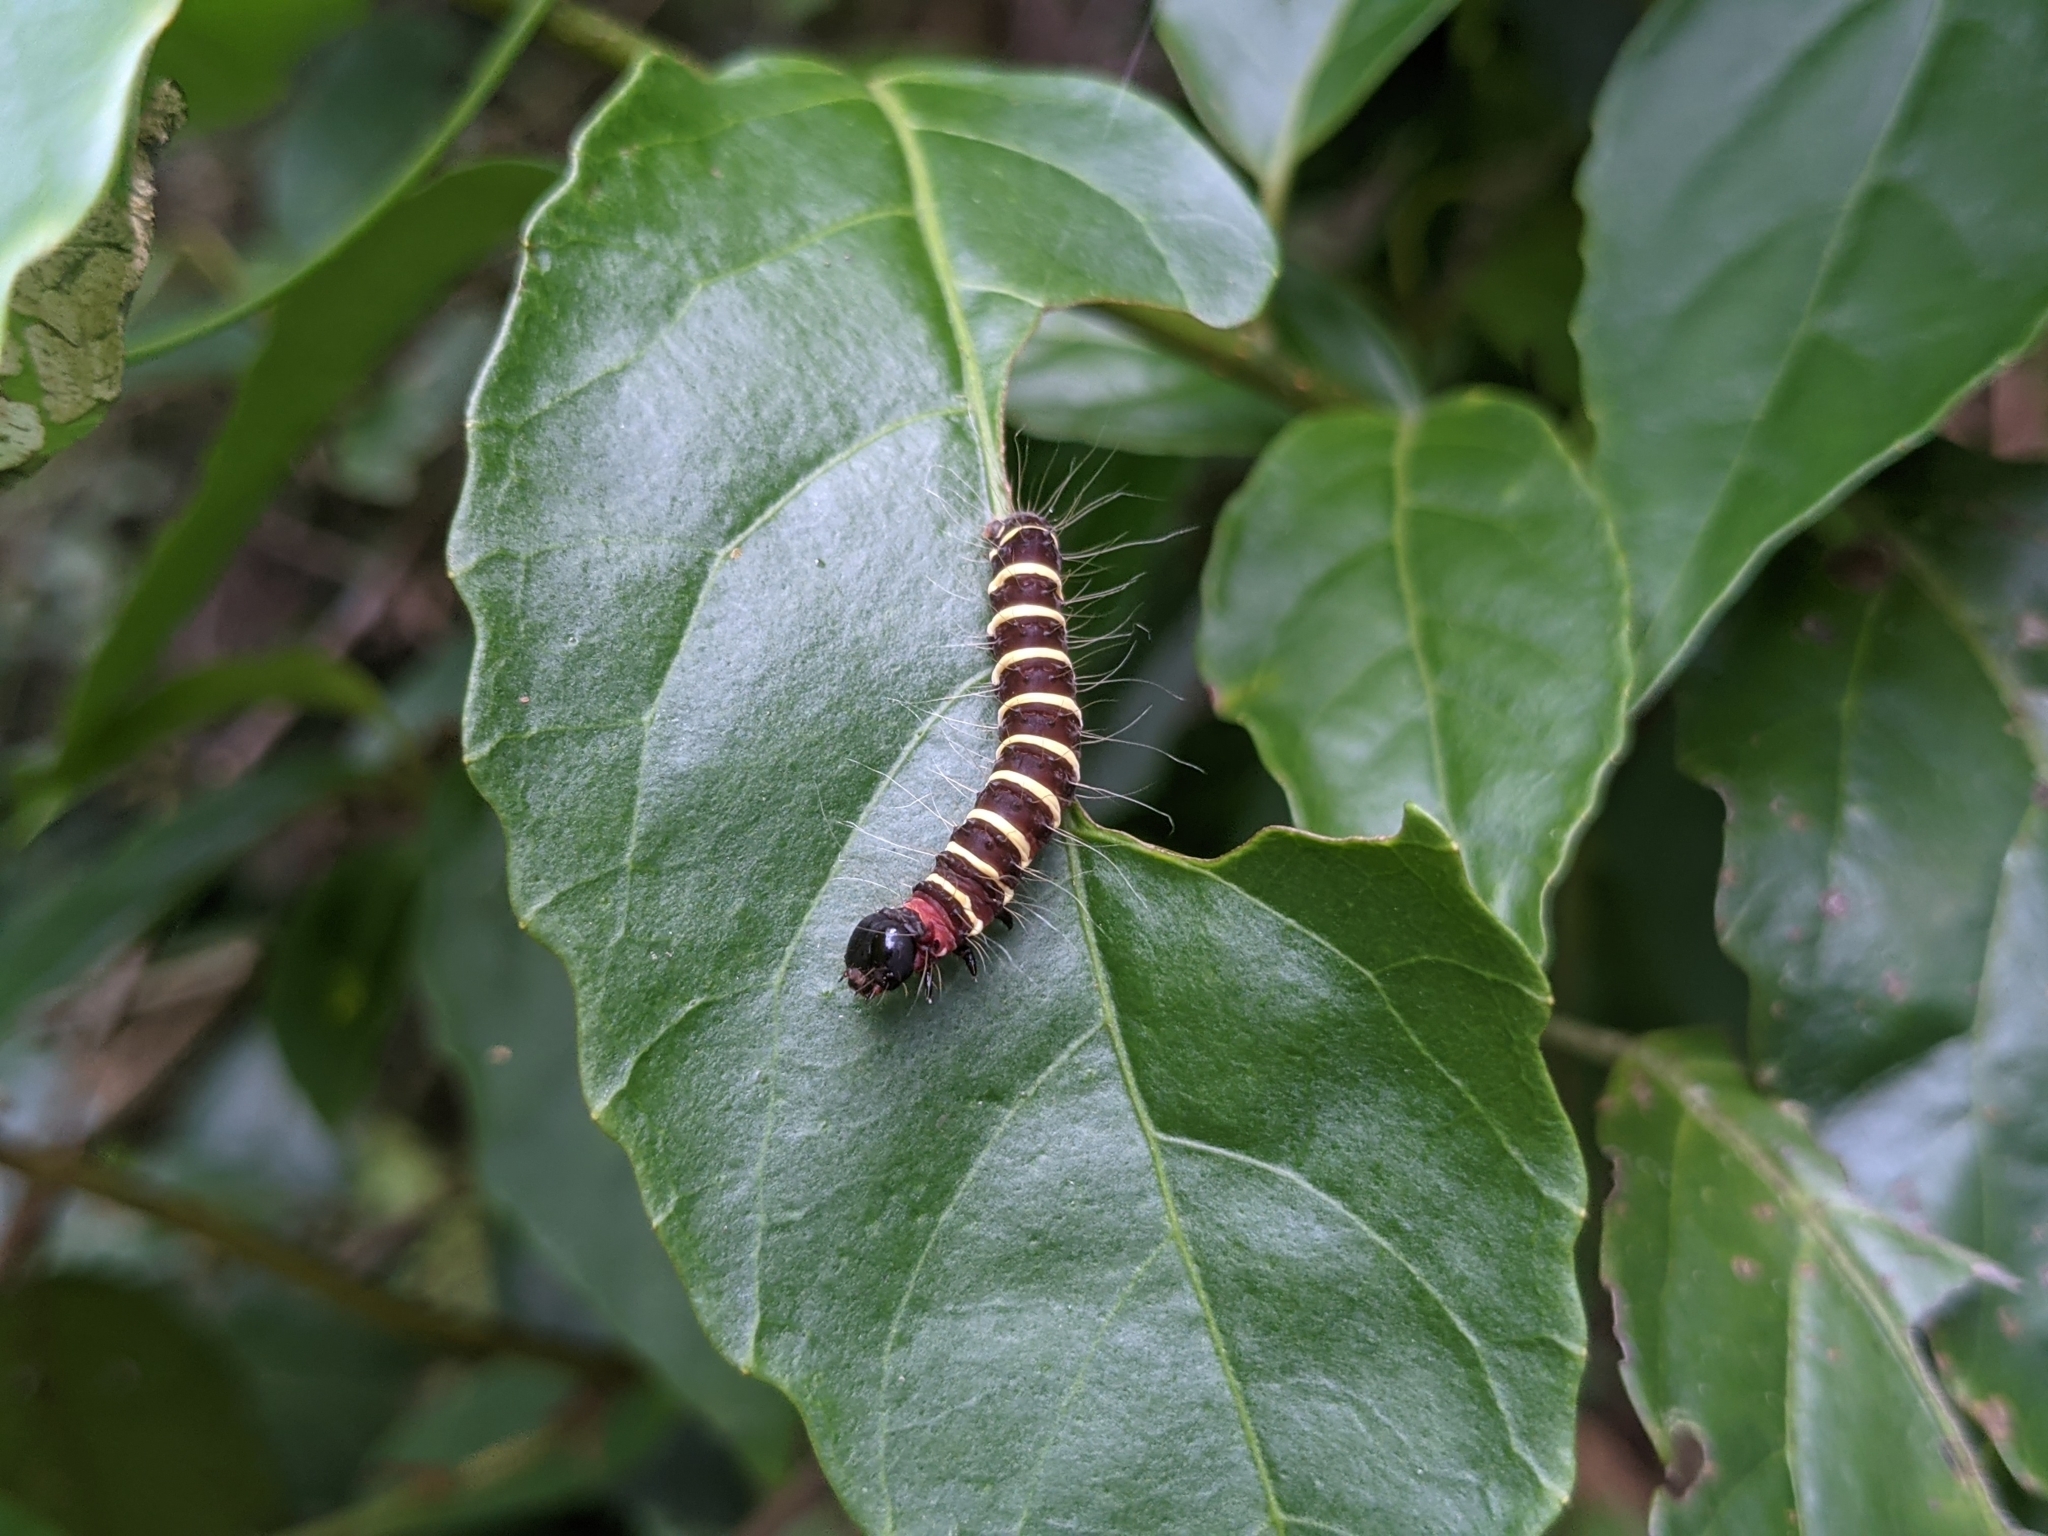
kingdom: Animalia
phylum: Arthropoda
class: Insecta
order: Lepidoptera
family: Erebidae
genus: Asota
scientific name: Asota plana
